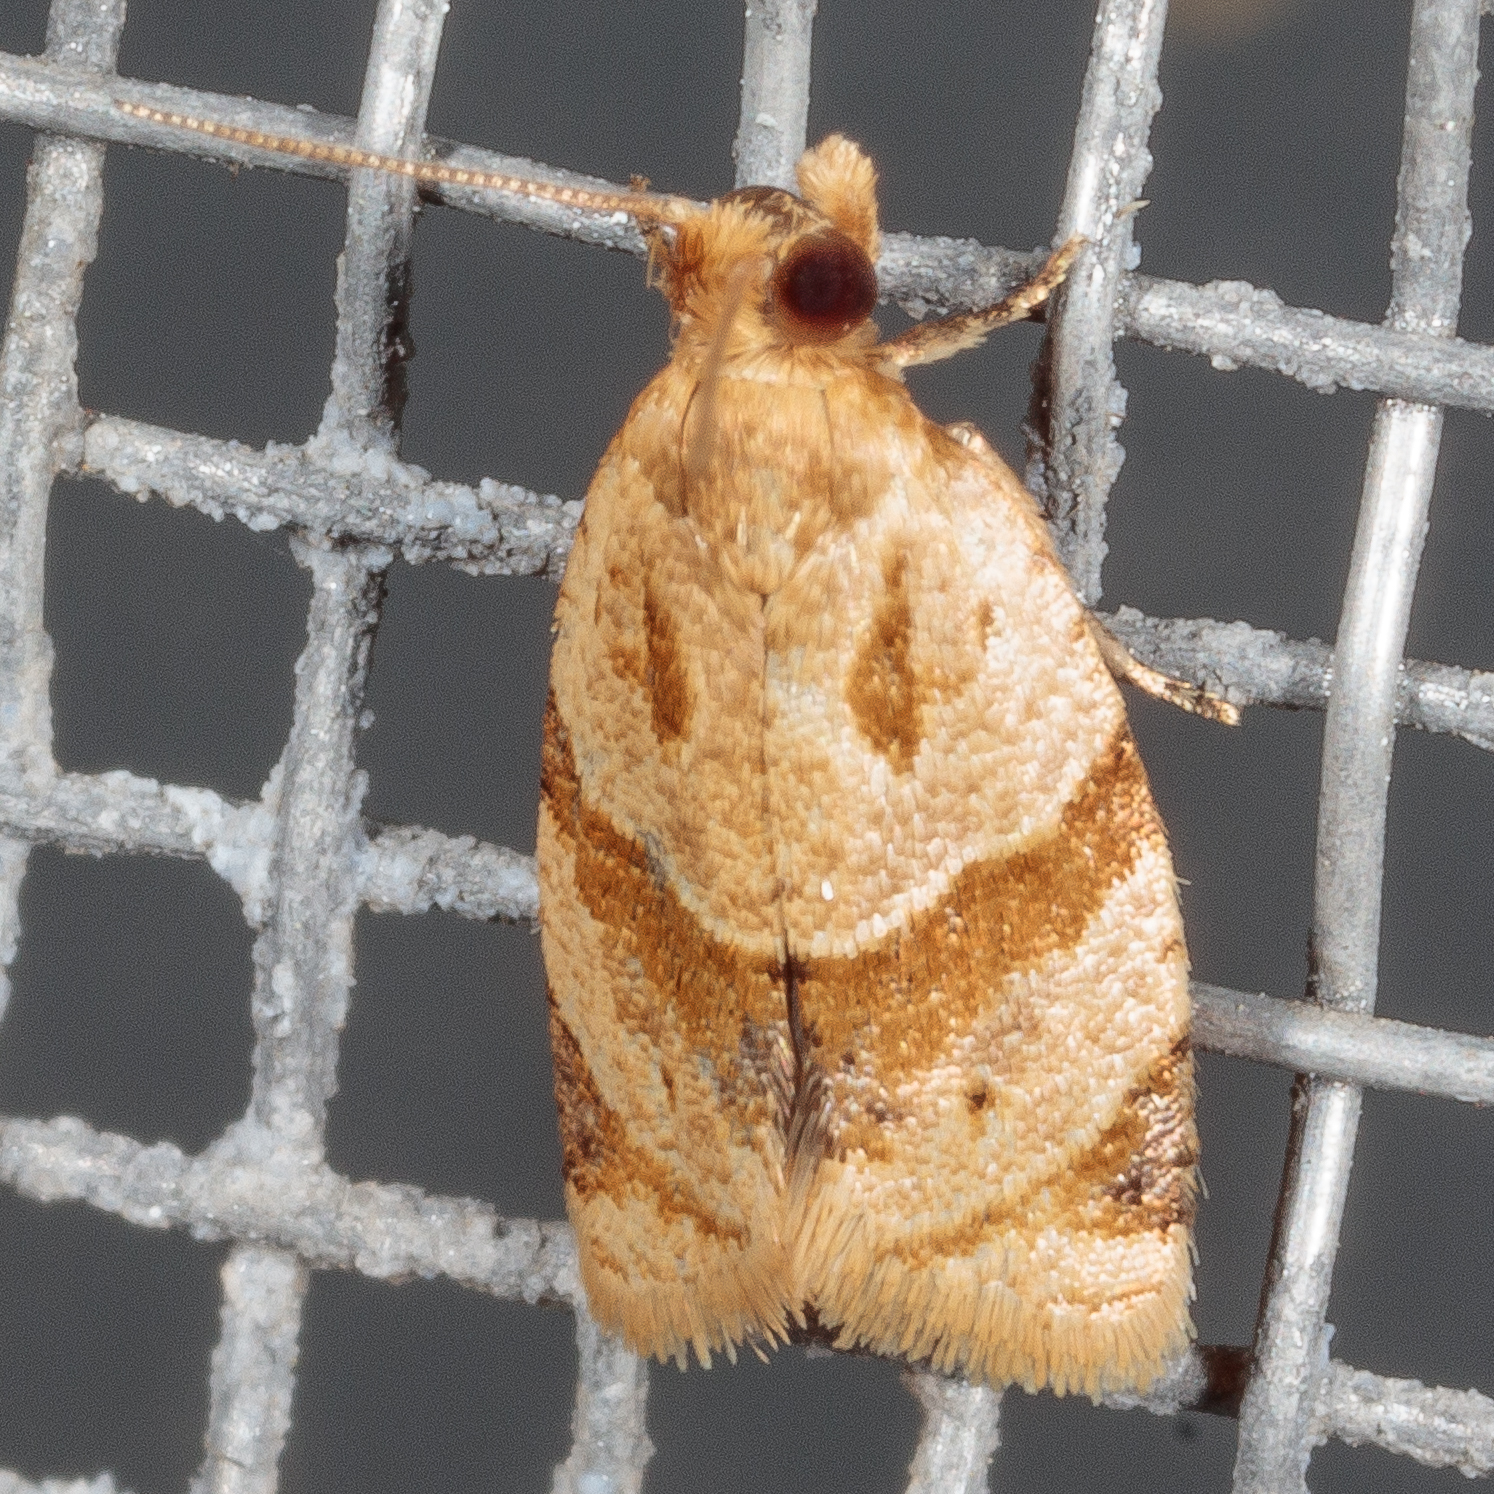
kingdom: Animalia
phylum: Arthropoda
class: Insecta
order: Lepidoptera
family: Tortricidae
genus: Clepsis
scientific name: Clepsis peritana
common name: Garden tortrix
